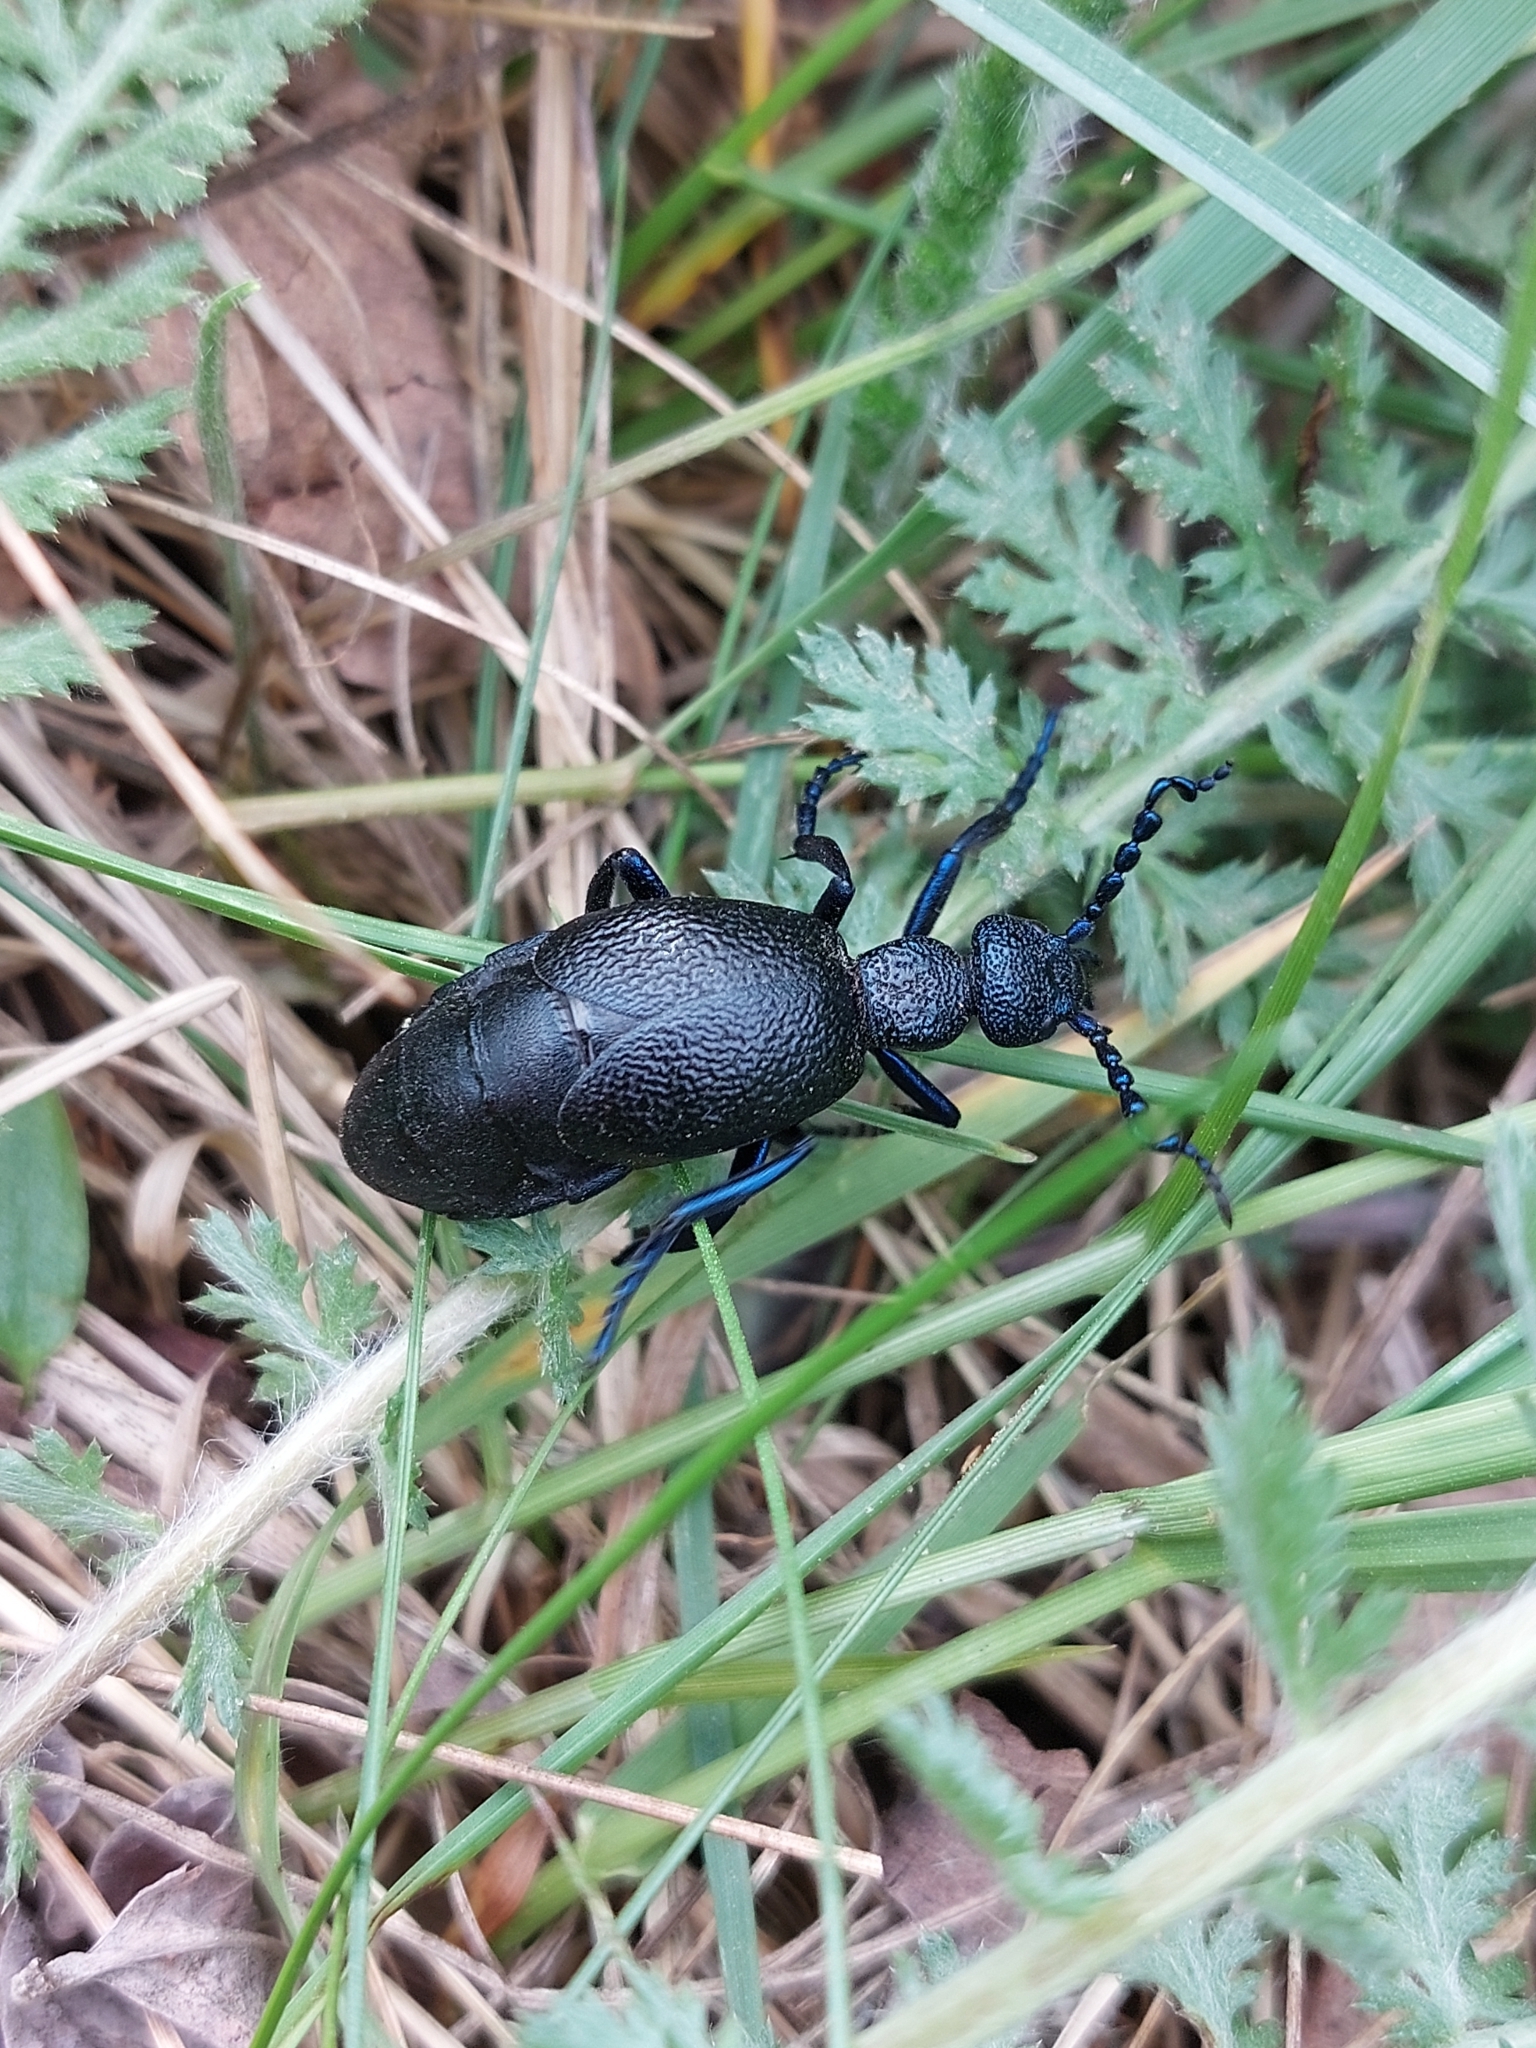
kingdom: Animalia
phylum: Arthropoda
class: Insecta
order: Coleoptera
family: Meloidae
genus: Meloe
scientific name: Meloe proscarabaeus
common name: Black oil-beetle
